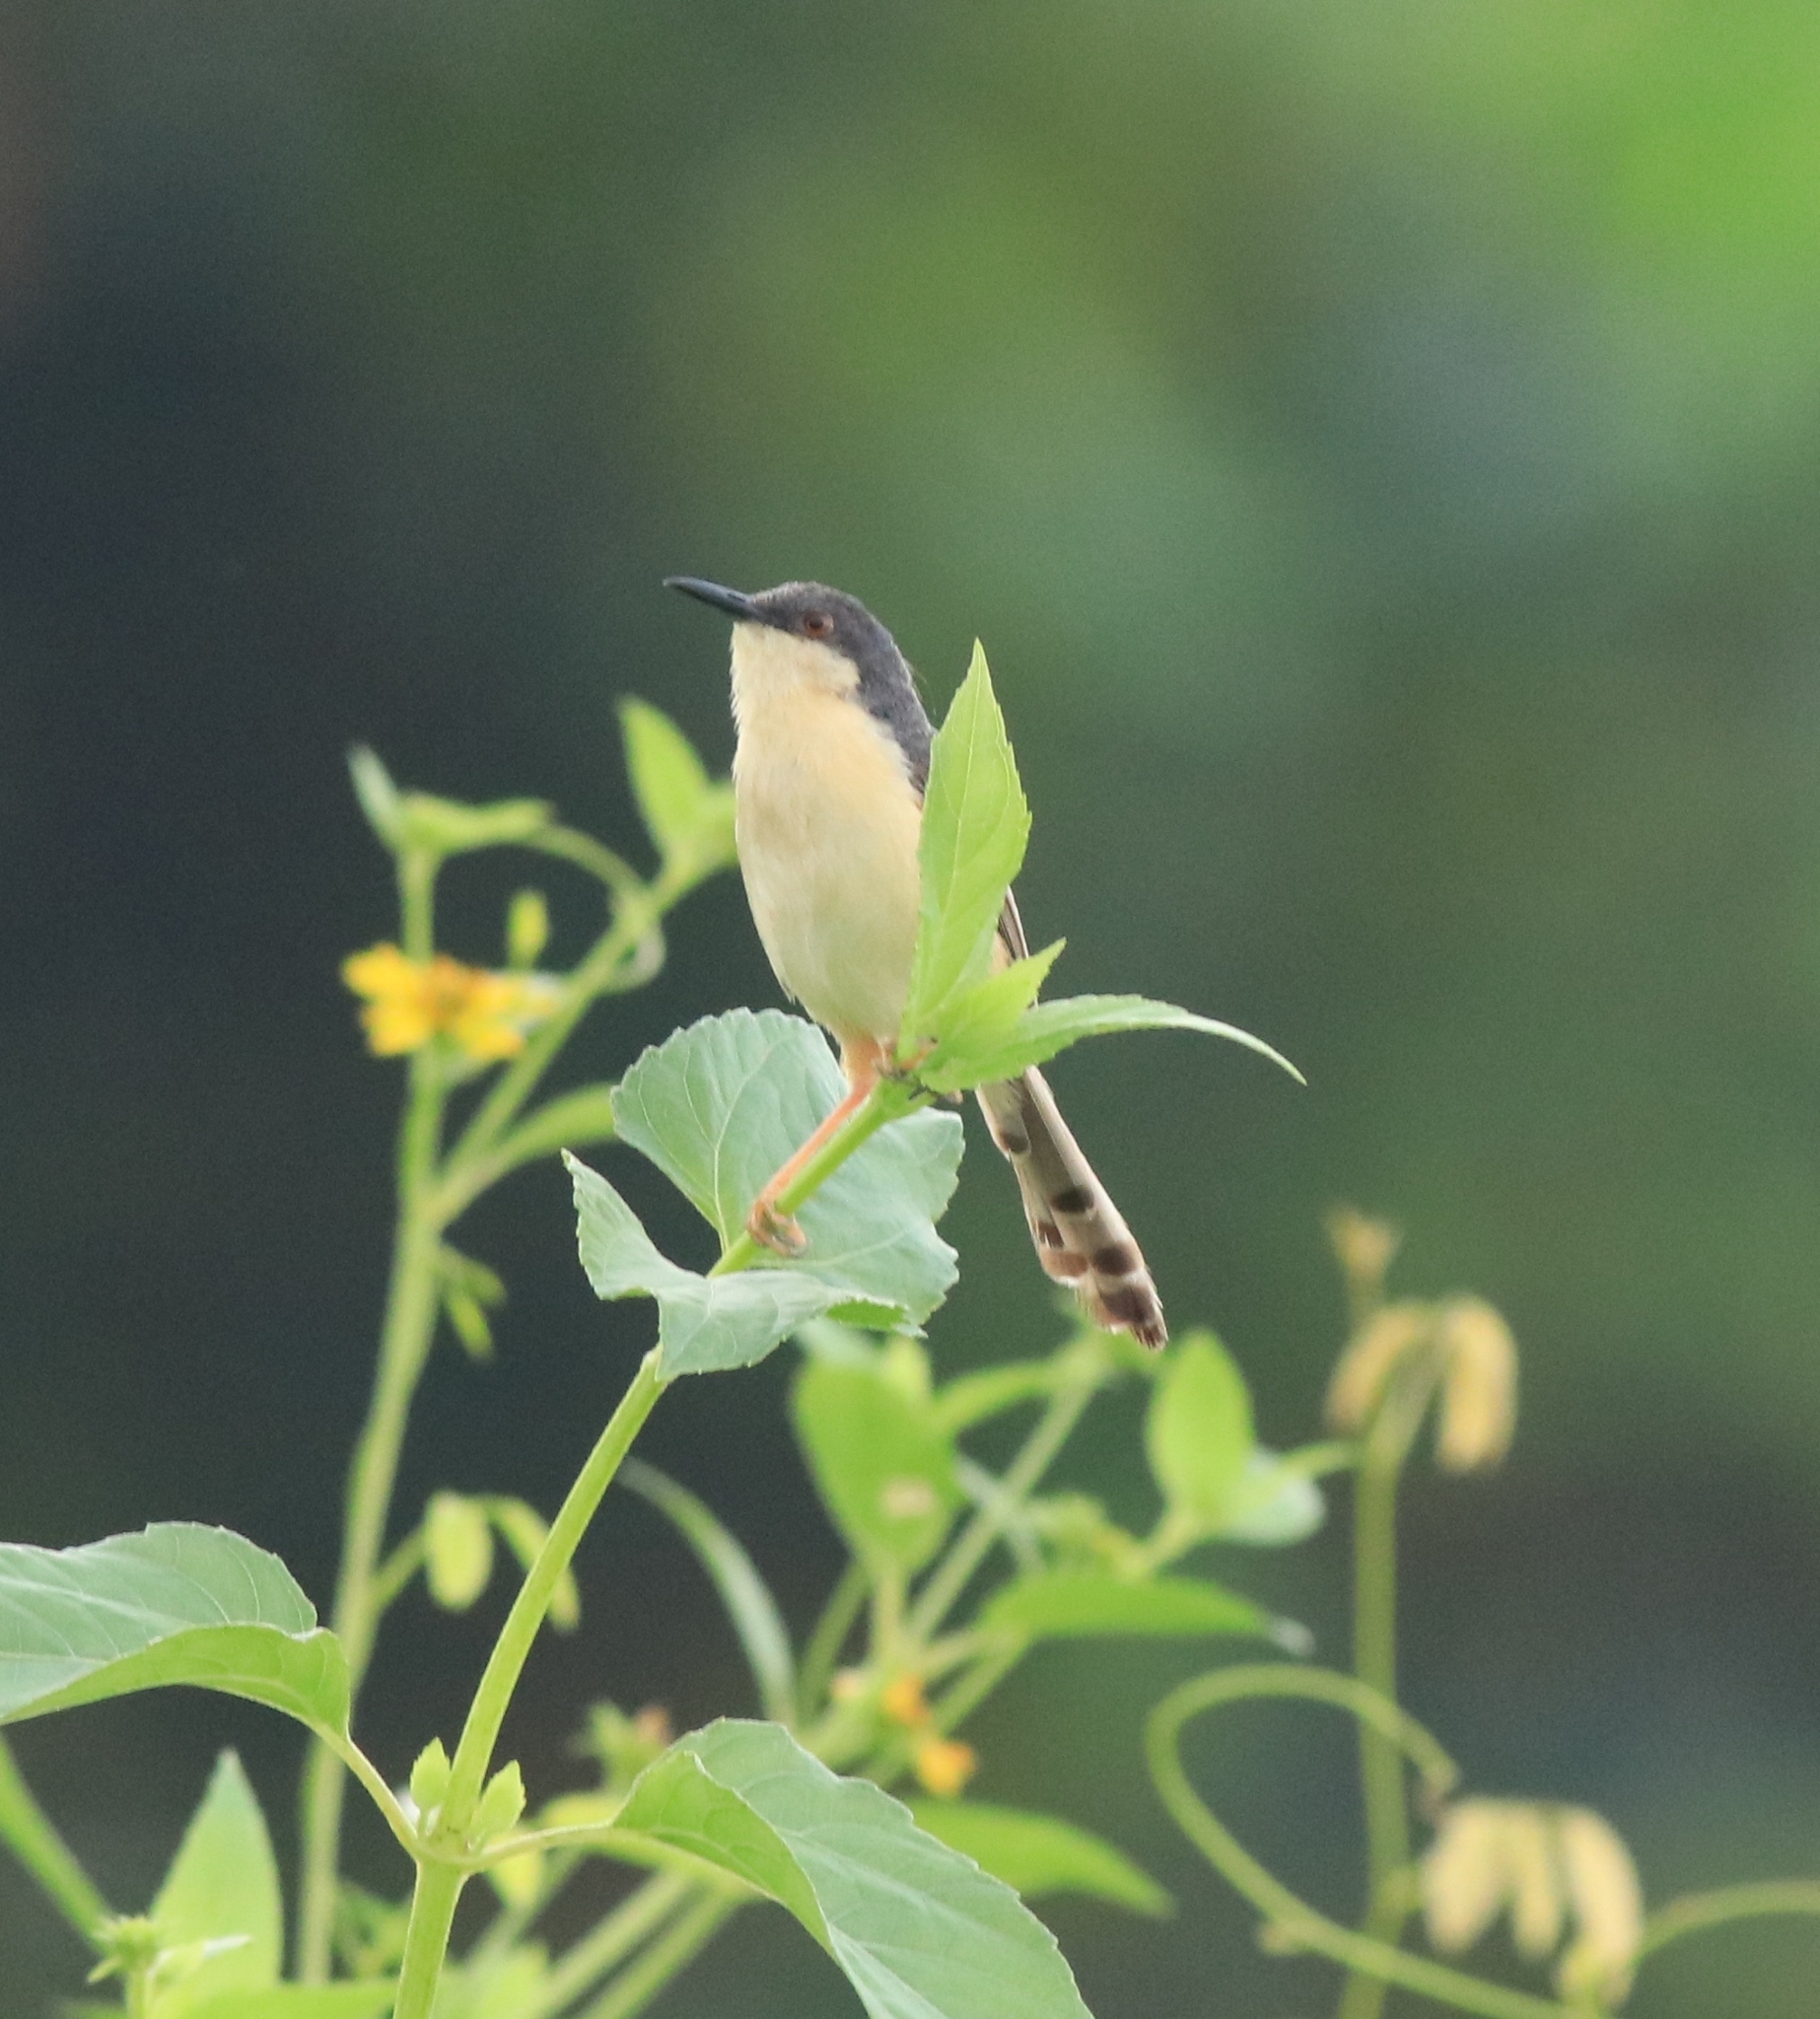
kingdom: Animalia
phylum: Chordata
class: Aves
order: Passeriformes
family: Cisticolidae
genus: Prinia
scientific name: Prinia socialis
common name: Ashy prinia
